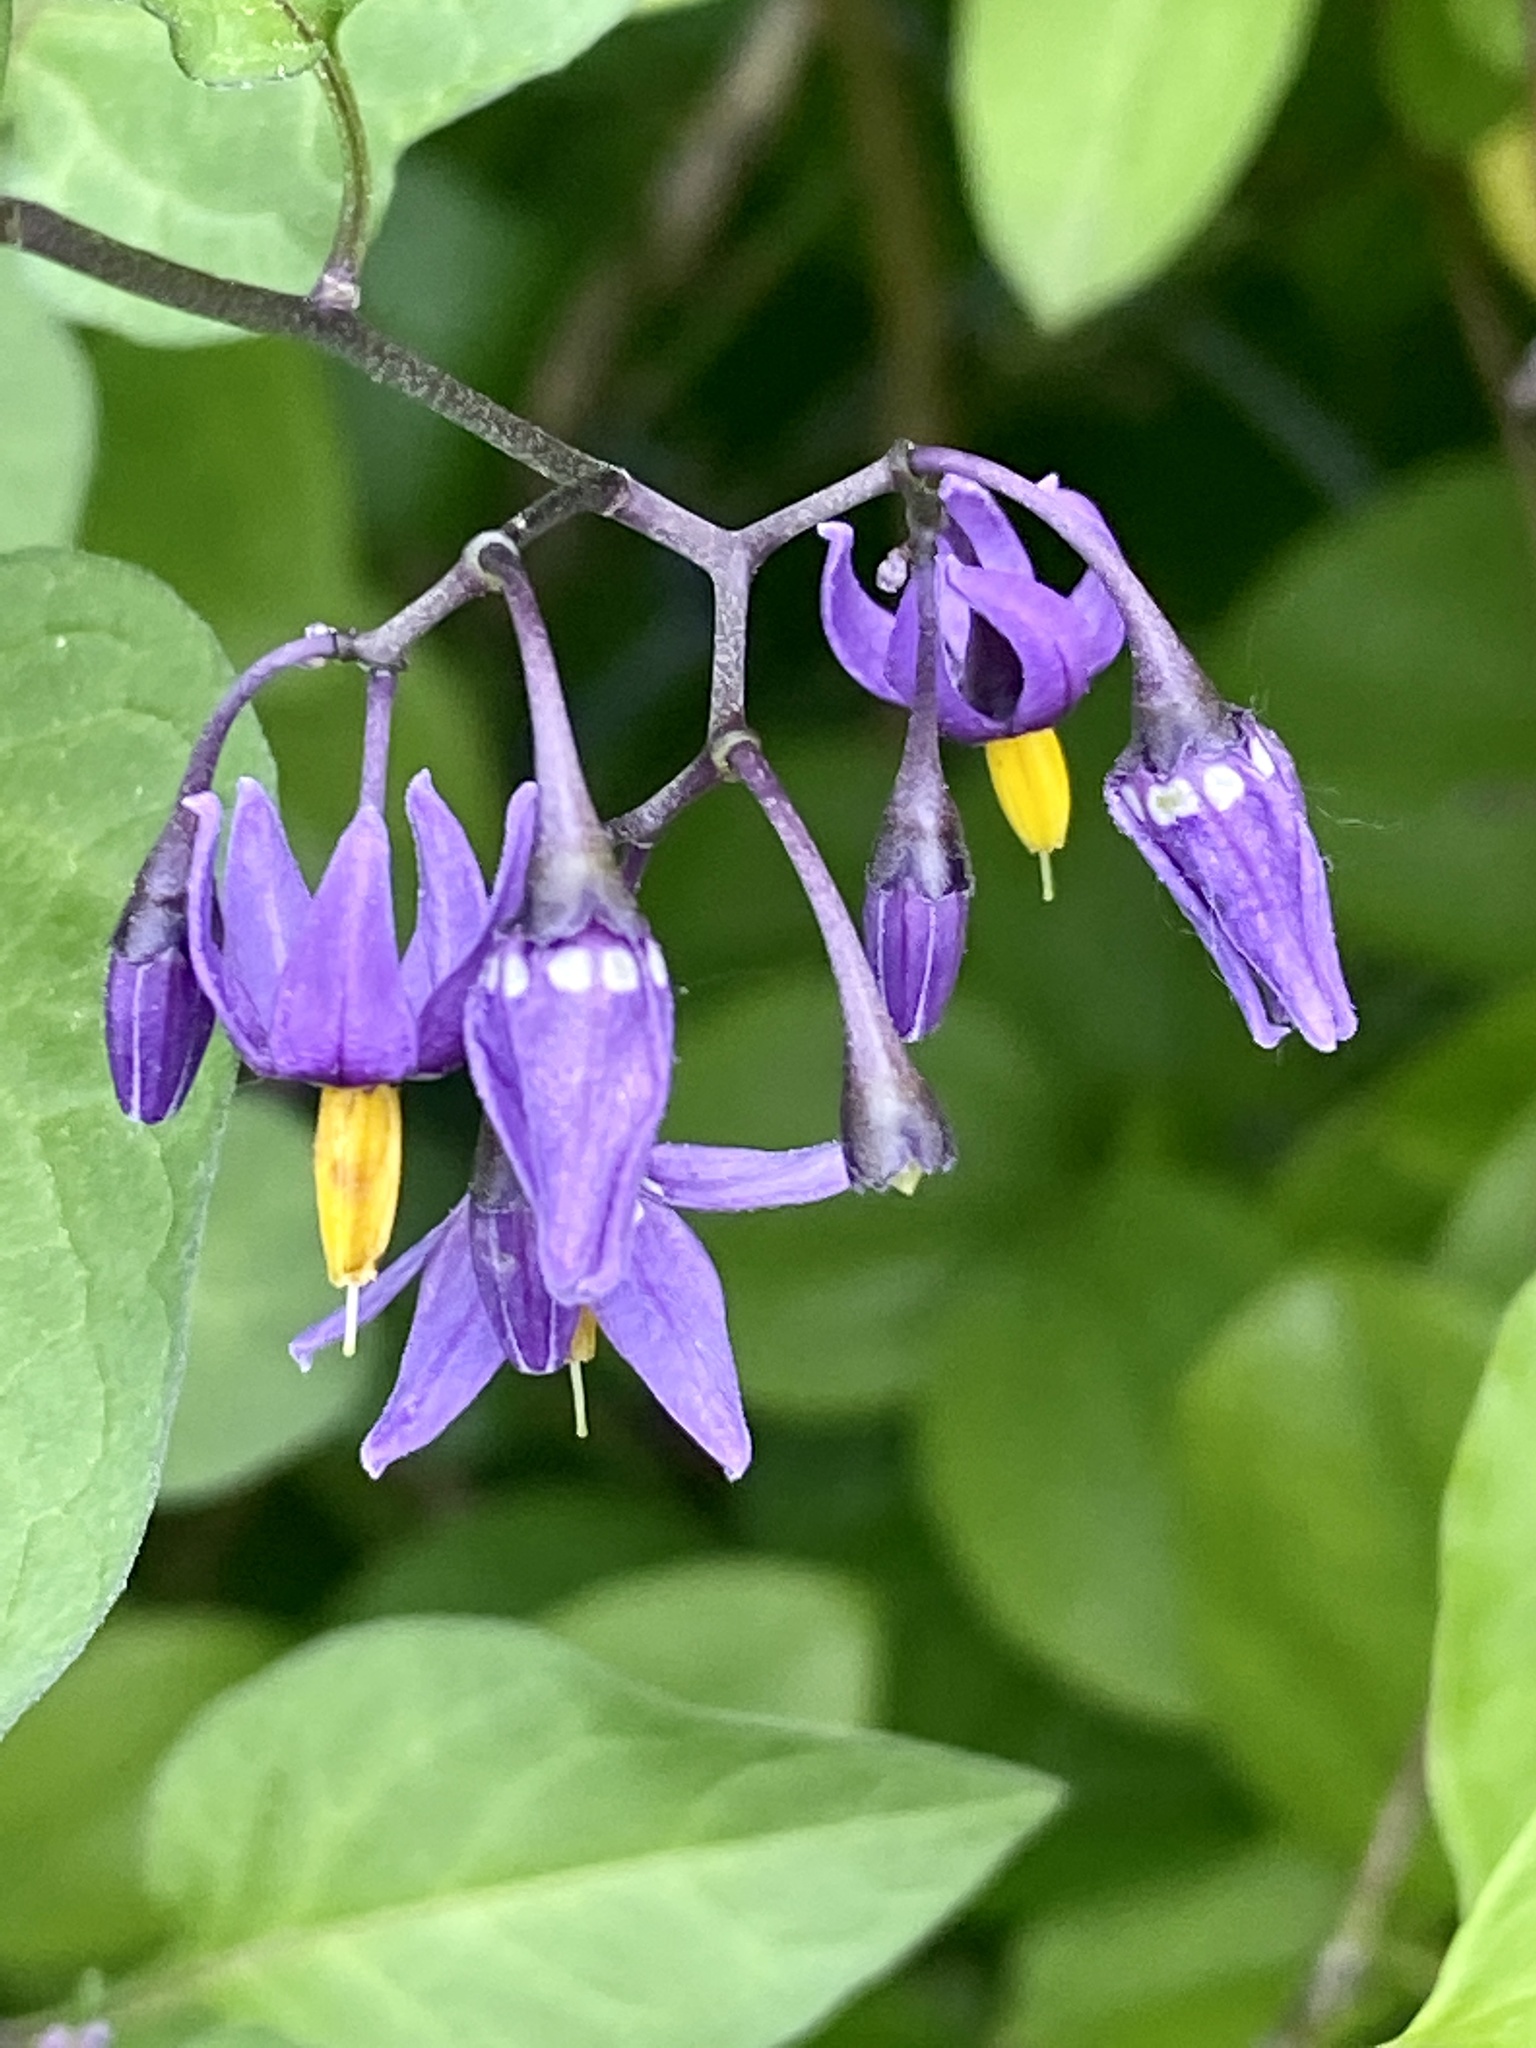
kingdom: Plantae
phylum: Tracheophyta
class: Magnoliopsida
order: Solanales
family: Solanaceae
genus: Solanum
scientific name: Solanum dulcamara
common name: Climbing nightshade
